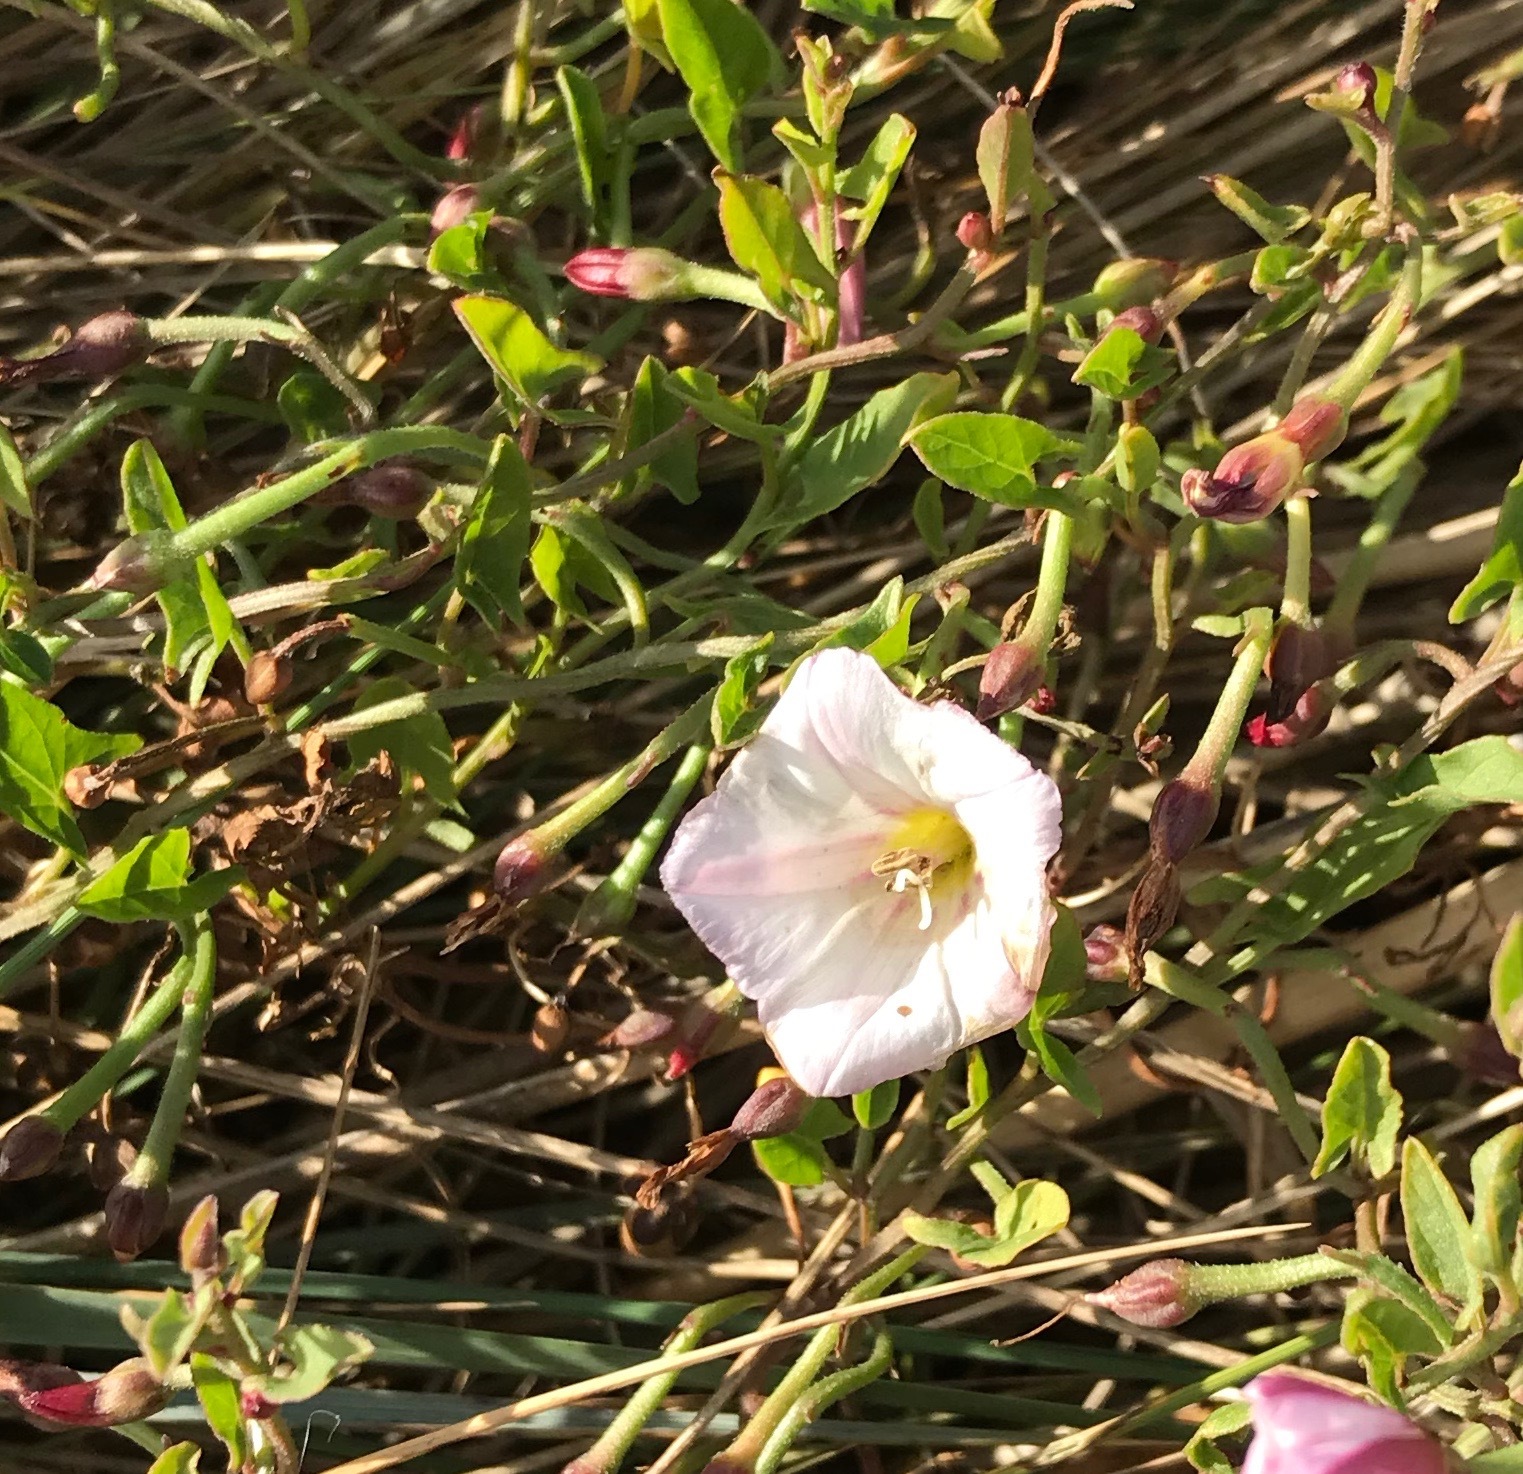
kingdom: Plantae
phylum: Tracheophyta
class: Magnoliopsida
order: Solanales
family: Convolvulaceae
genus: Convolvulus
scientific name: Convolvulus arvensis
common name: Field bindweed
